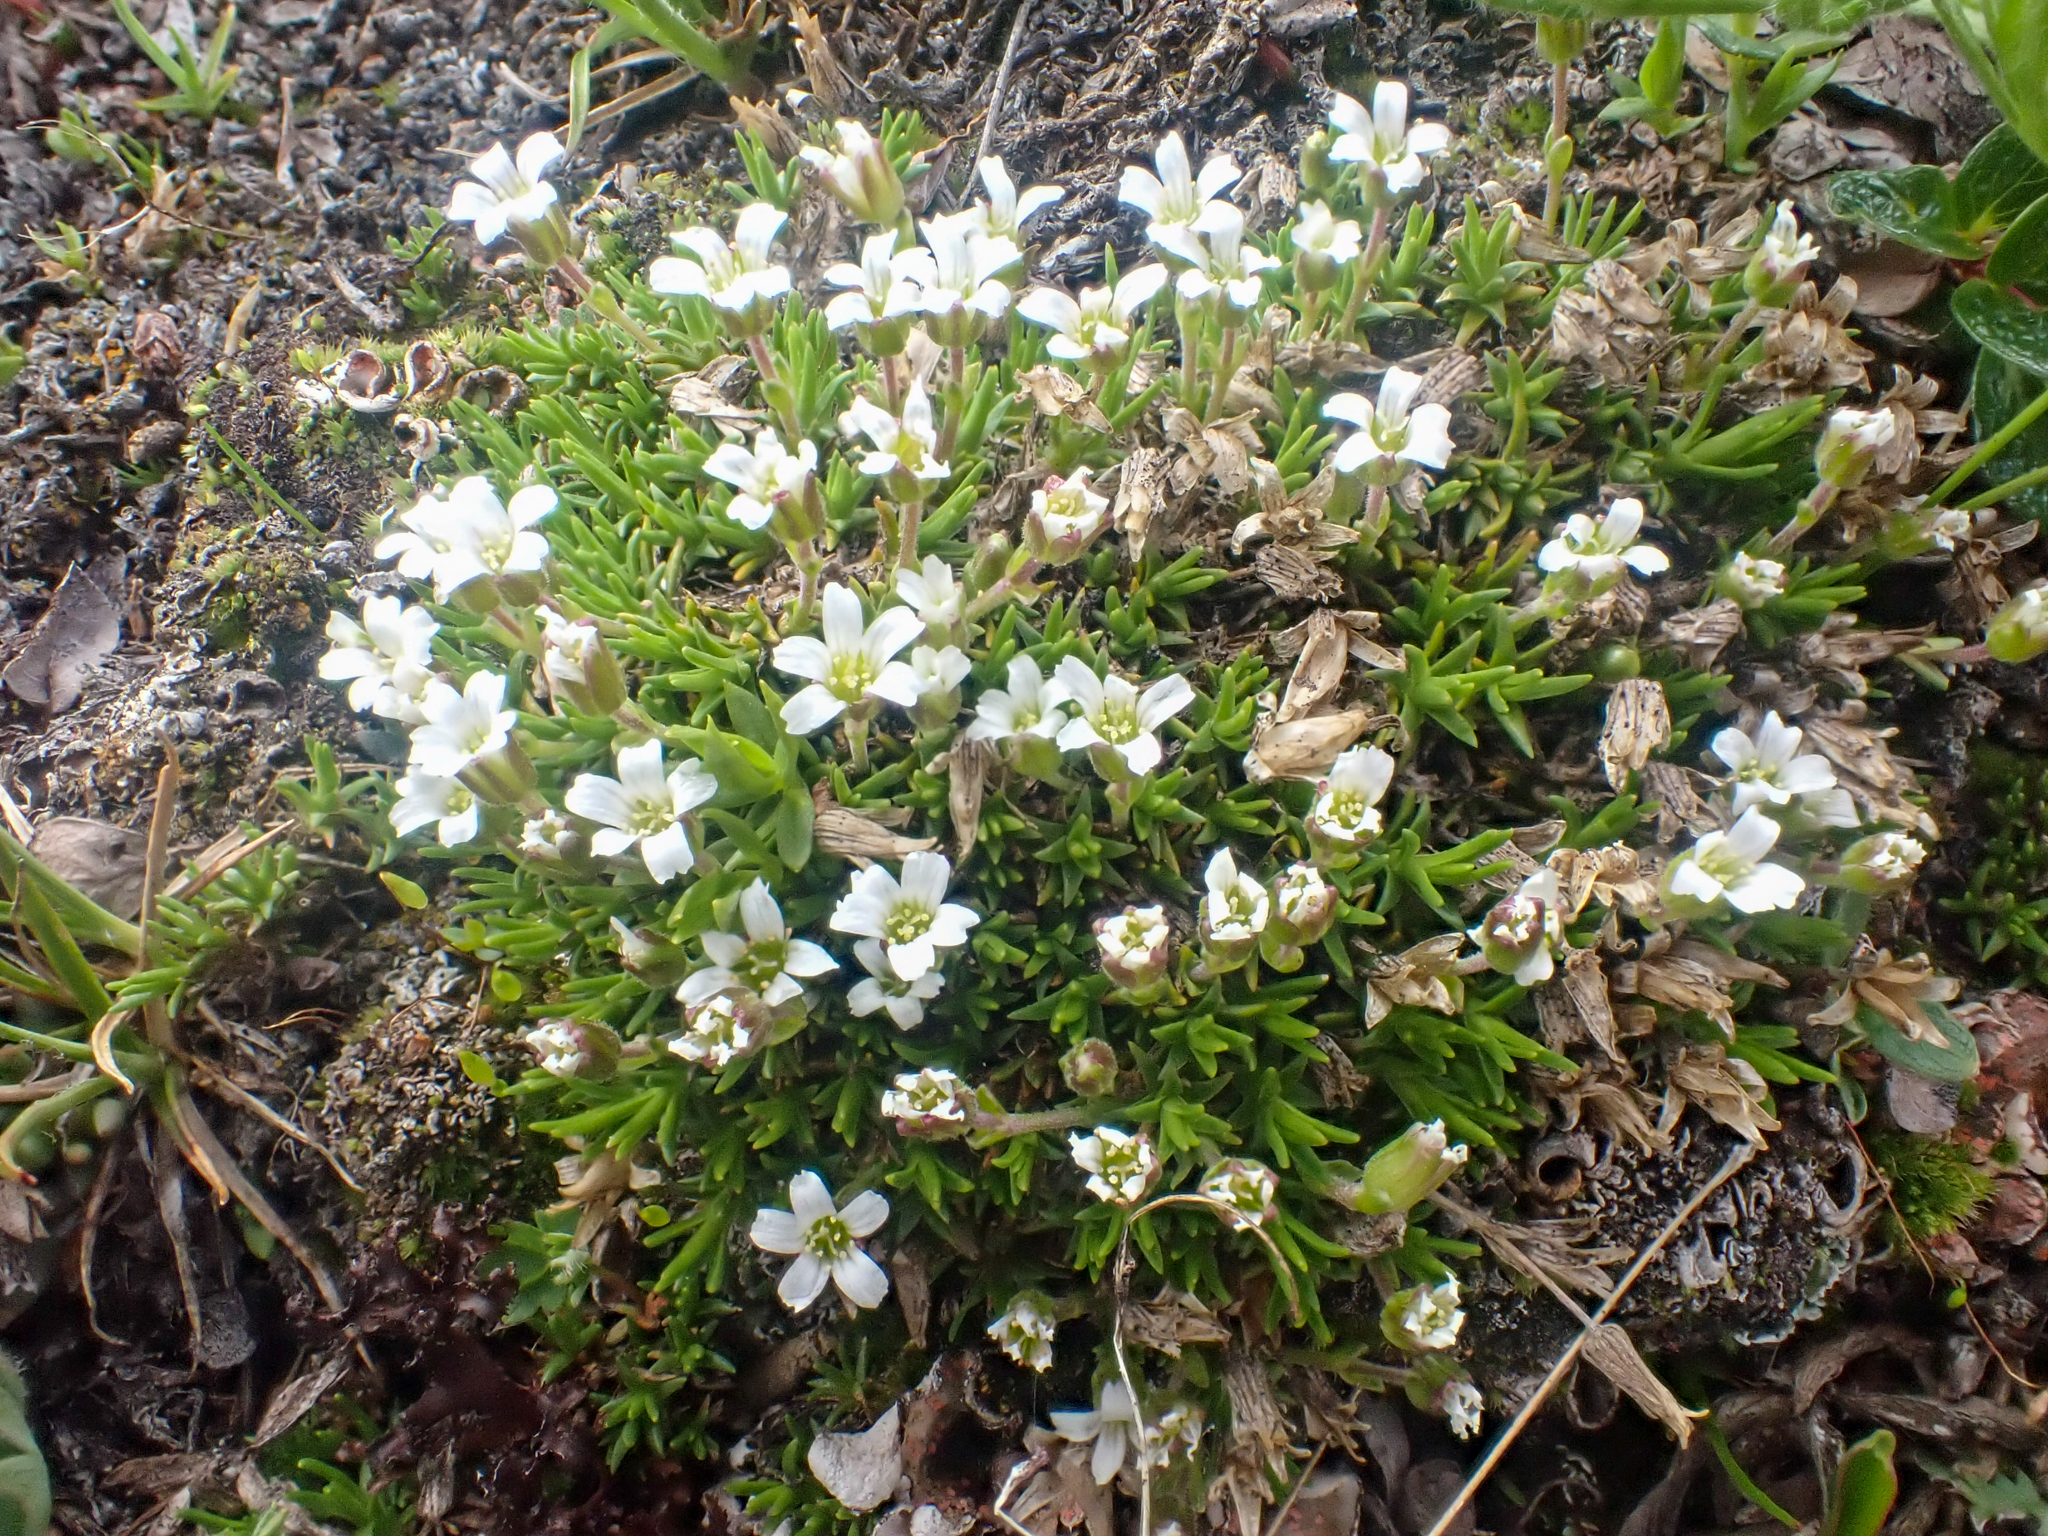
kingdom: Plantae
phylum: Tracheophyta
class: Magnoliopsida
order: Caryophyllales
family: Caryophyllaceae
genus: Cherleria
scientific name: Cherleria biflora
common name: Mountain sandwort
